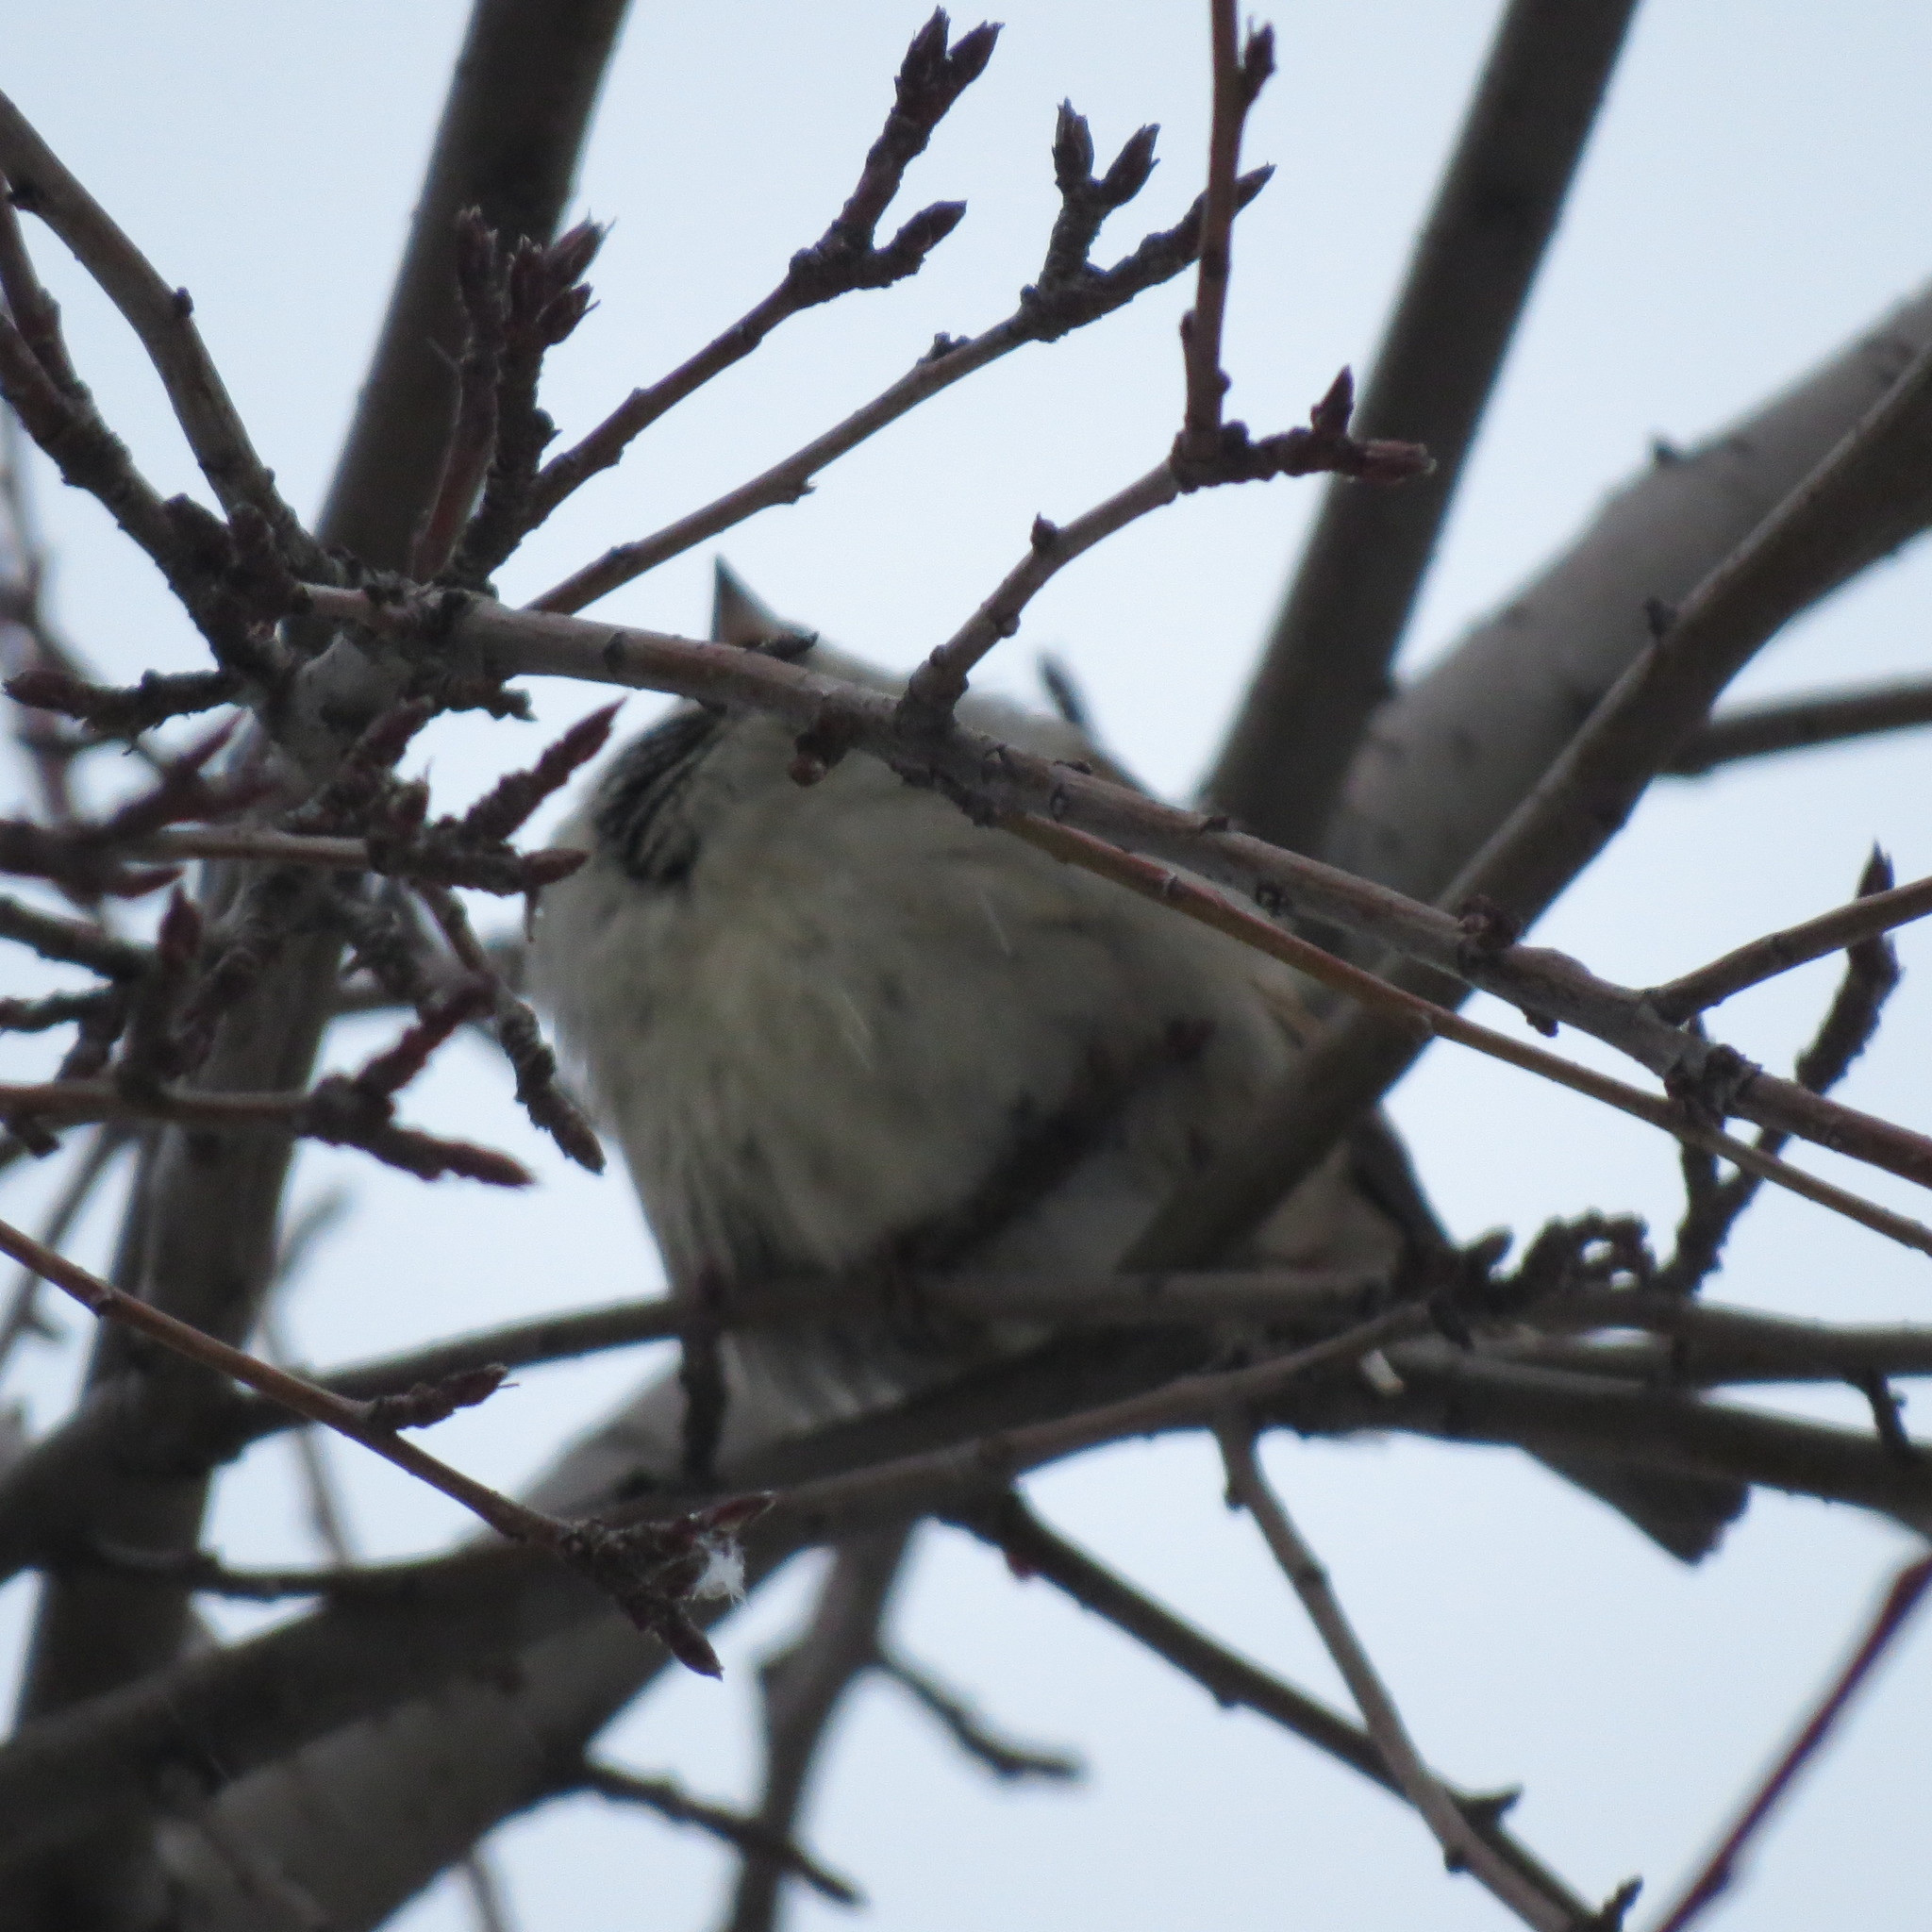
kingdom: Animalia
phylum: Chordata
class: Aves
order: Passeriformes
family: Passeridae
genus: Passer
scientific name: Passer domesticus
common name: House sparrow
